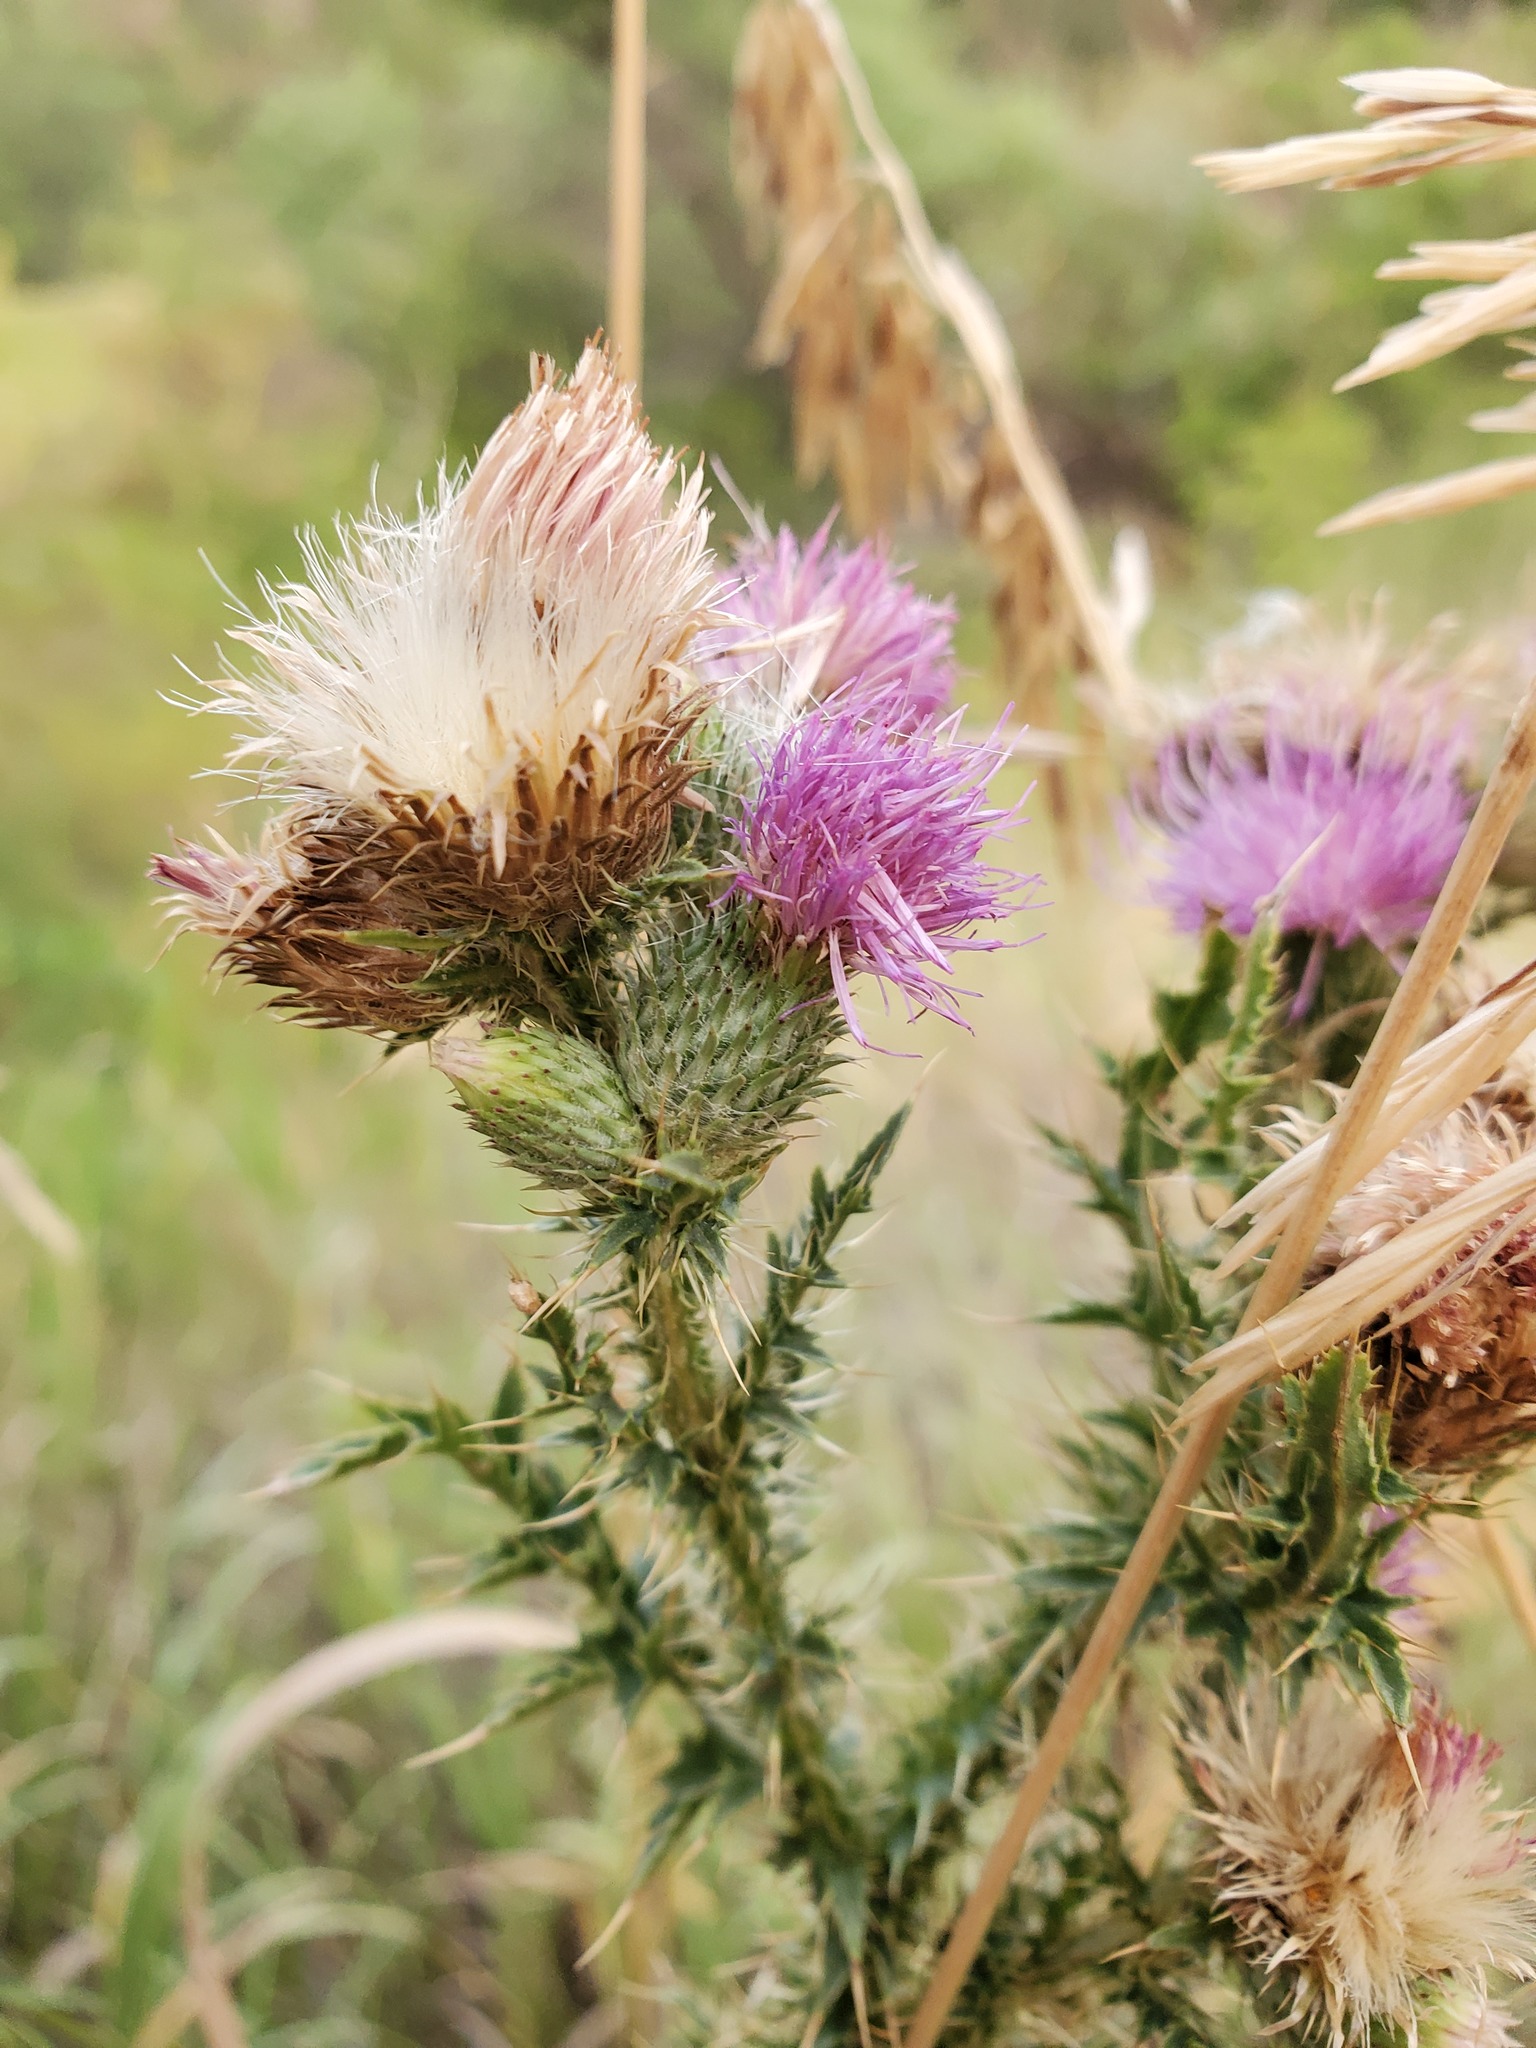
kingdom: Plantae
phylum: Tracheophyta
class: Magnoliopsida
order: Asterales
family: Asteraceae
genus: Carduus
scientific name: Carduus acanthoides
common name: Plumeless thistle
